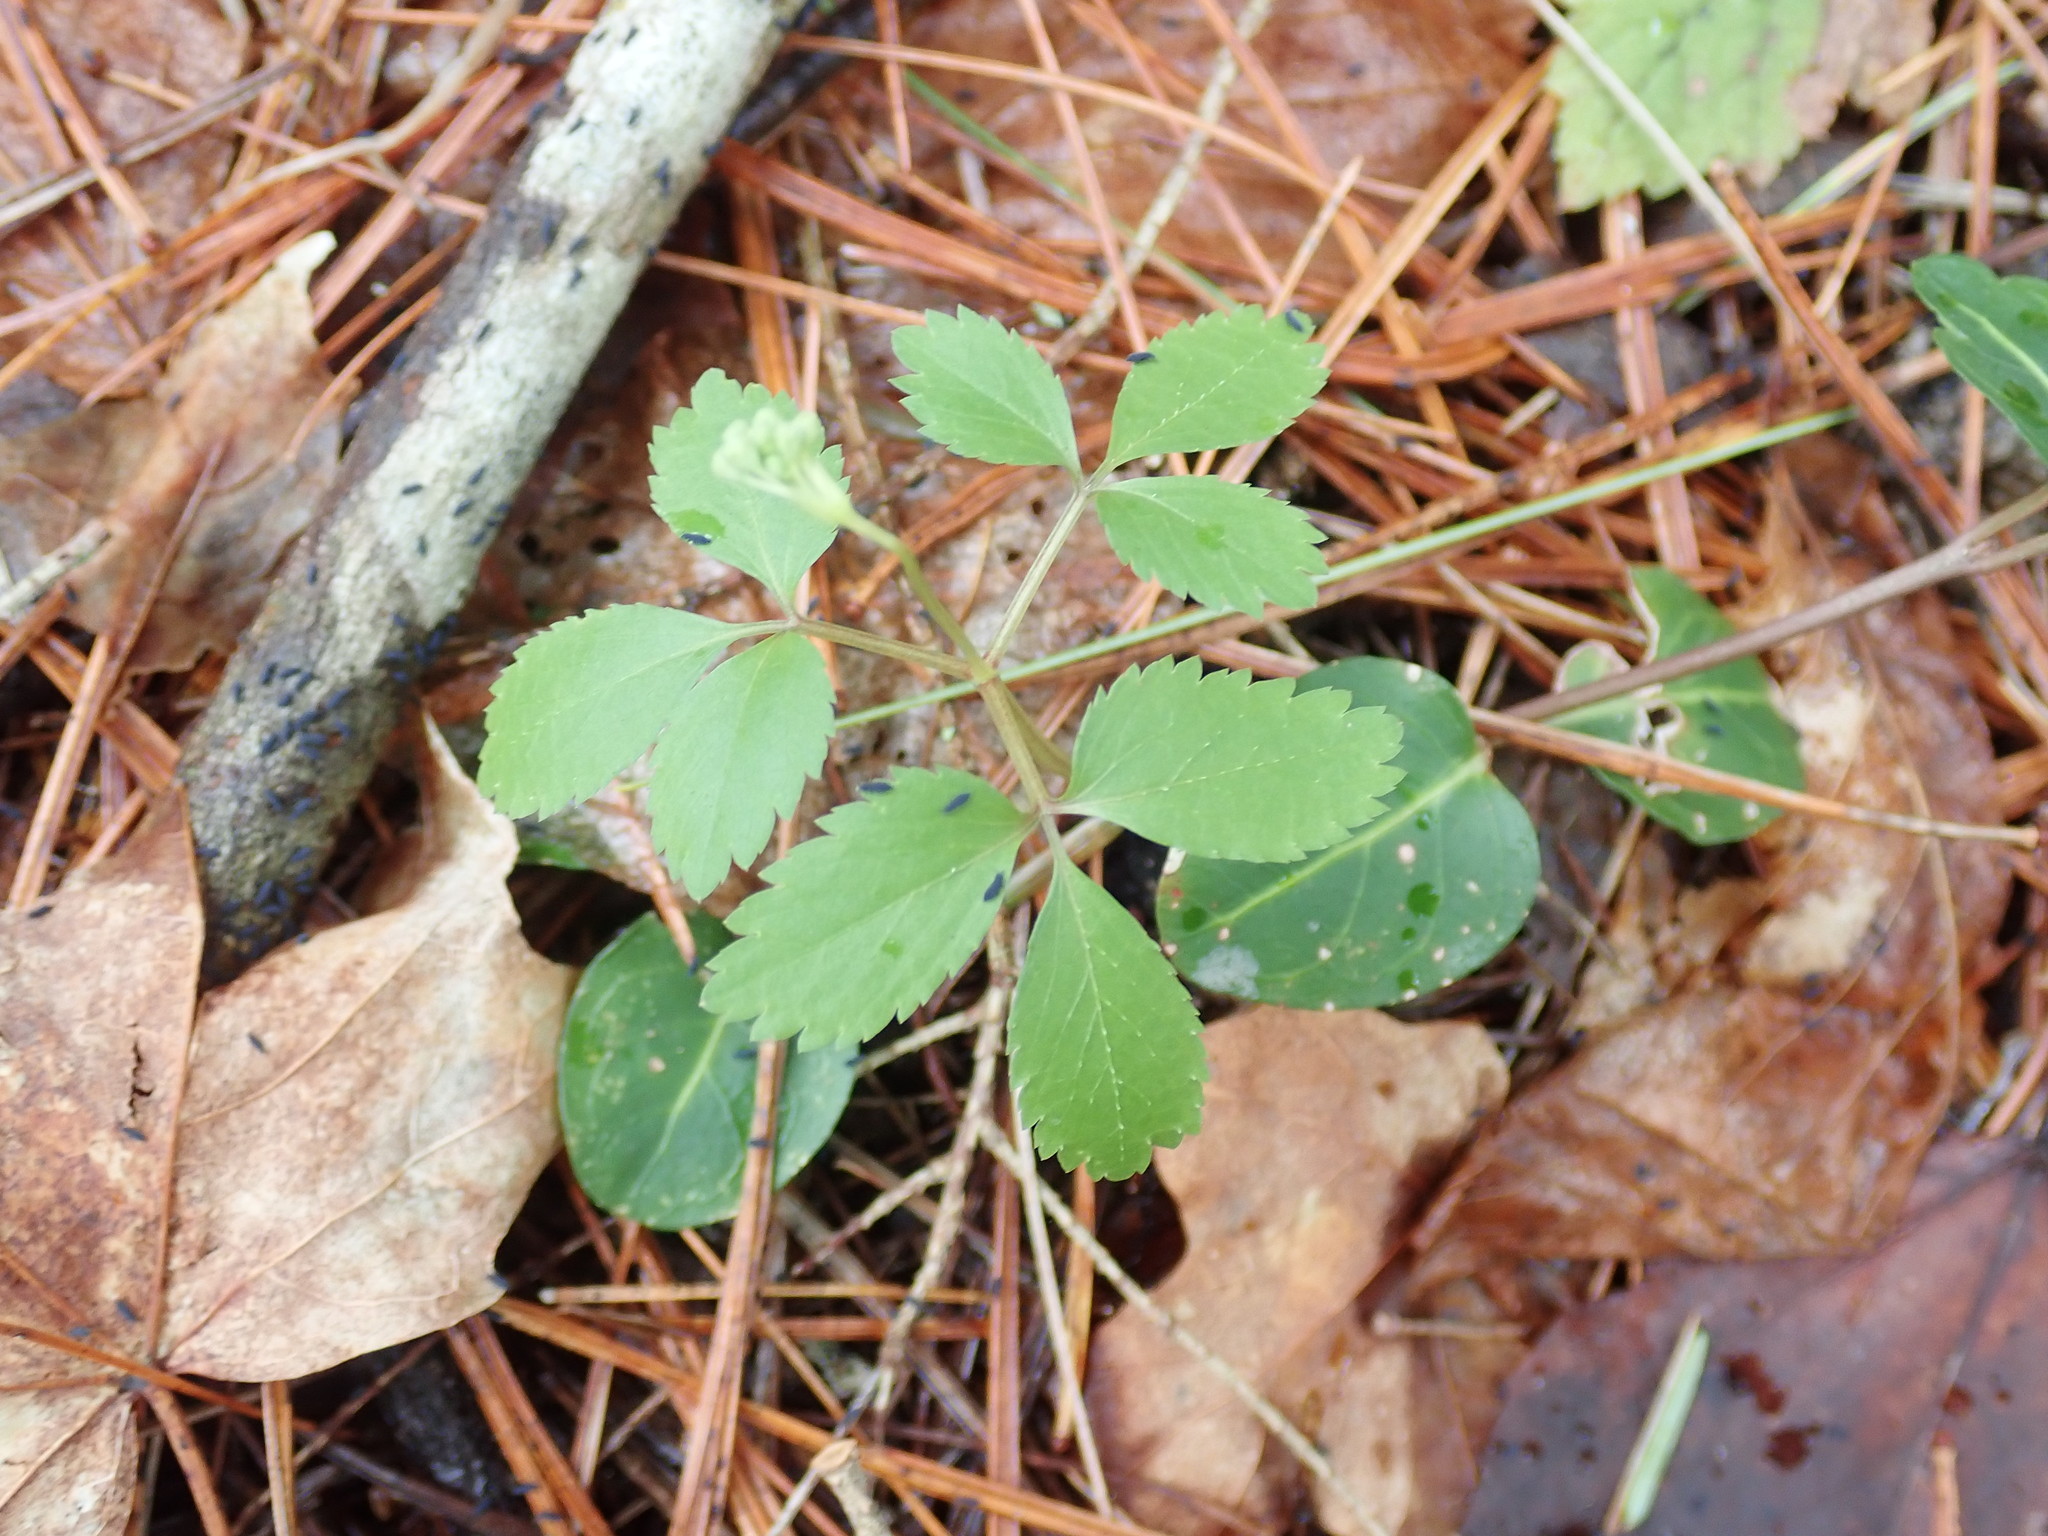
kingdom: Plantae
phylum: Tracheophyta
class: Magnoliopsida
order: Apiales
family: Araliaceae
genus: Panax
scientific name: Panax trifolius
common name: Dwarf ginseng
